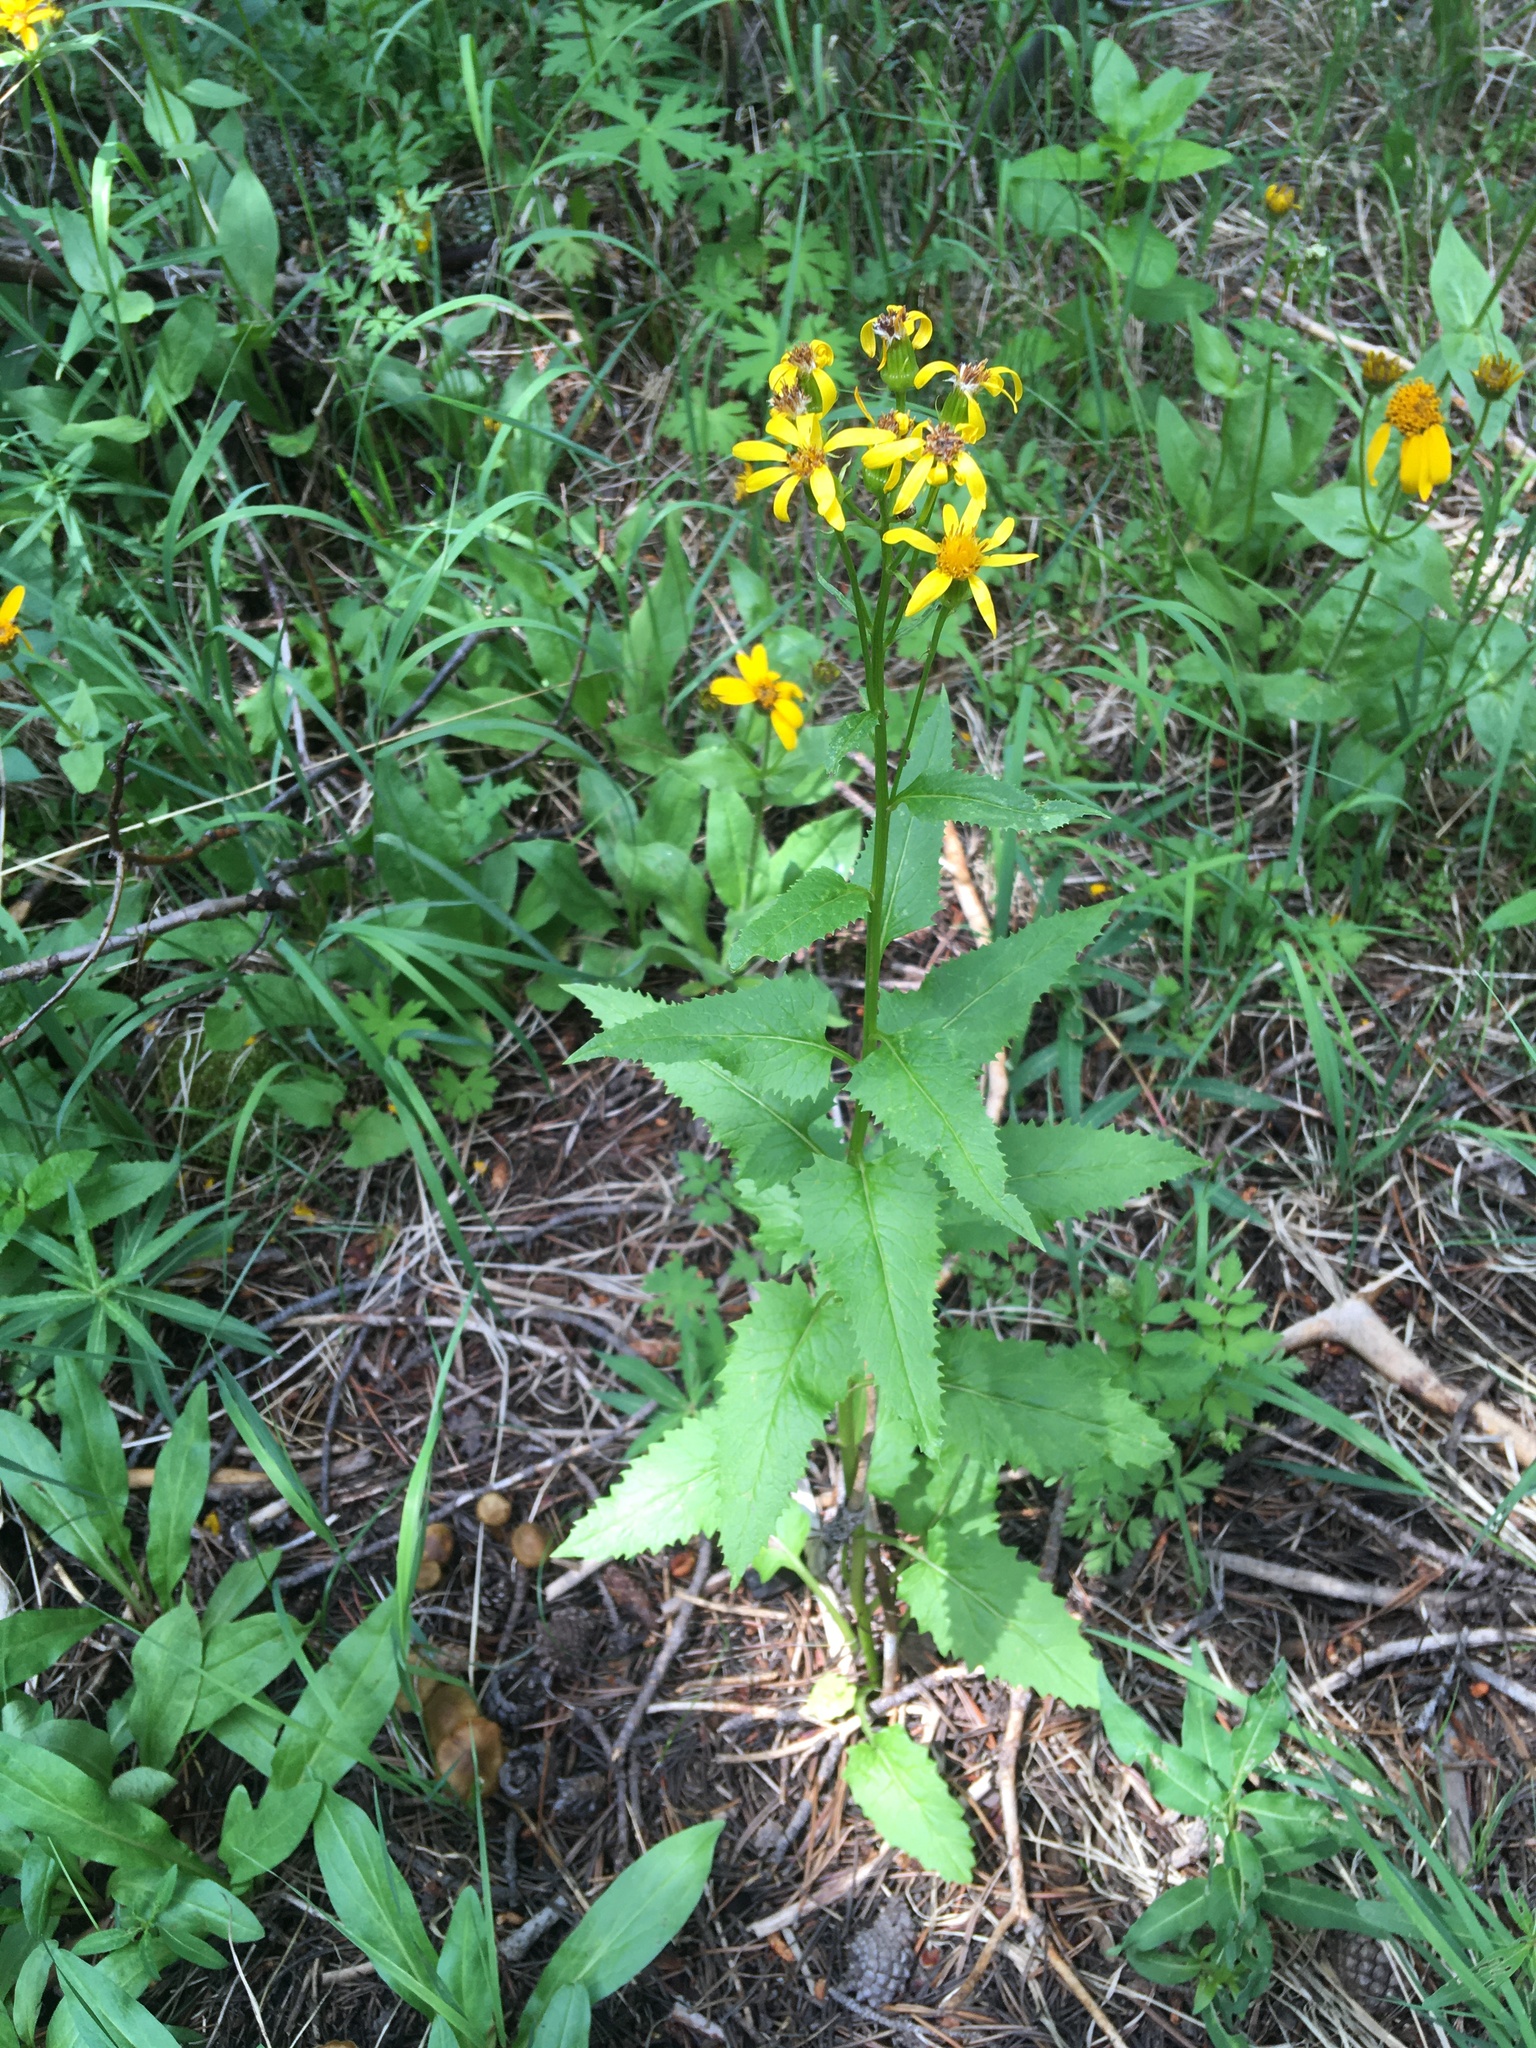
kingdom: Plantae
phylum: Tracheophyta
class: Magnoliopsida
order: Asterales
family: Asteraceae
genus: Senecio
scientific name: Senecio triangularis
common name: Arrowleaf butterweed
